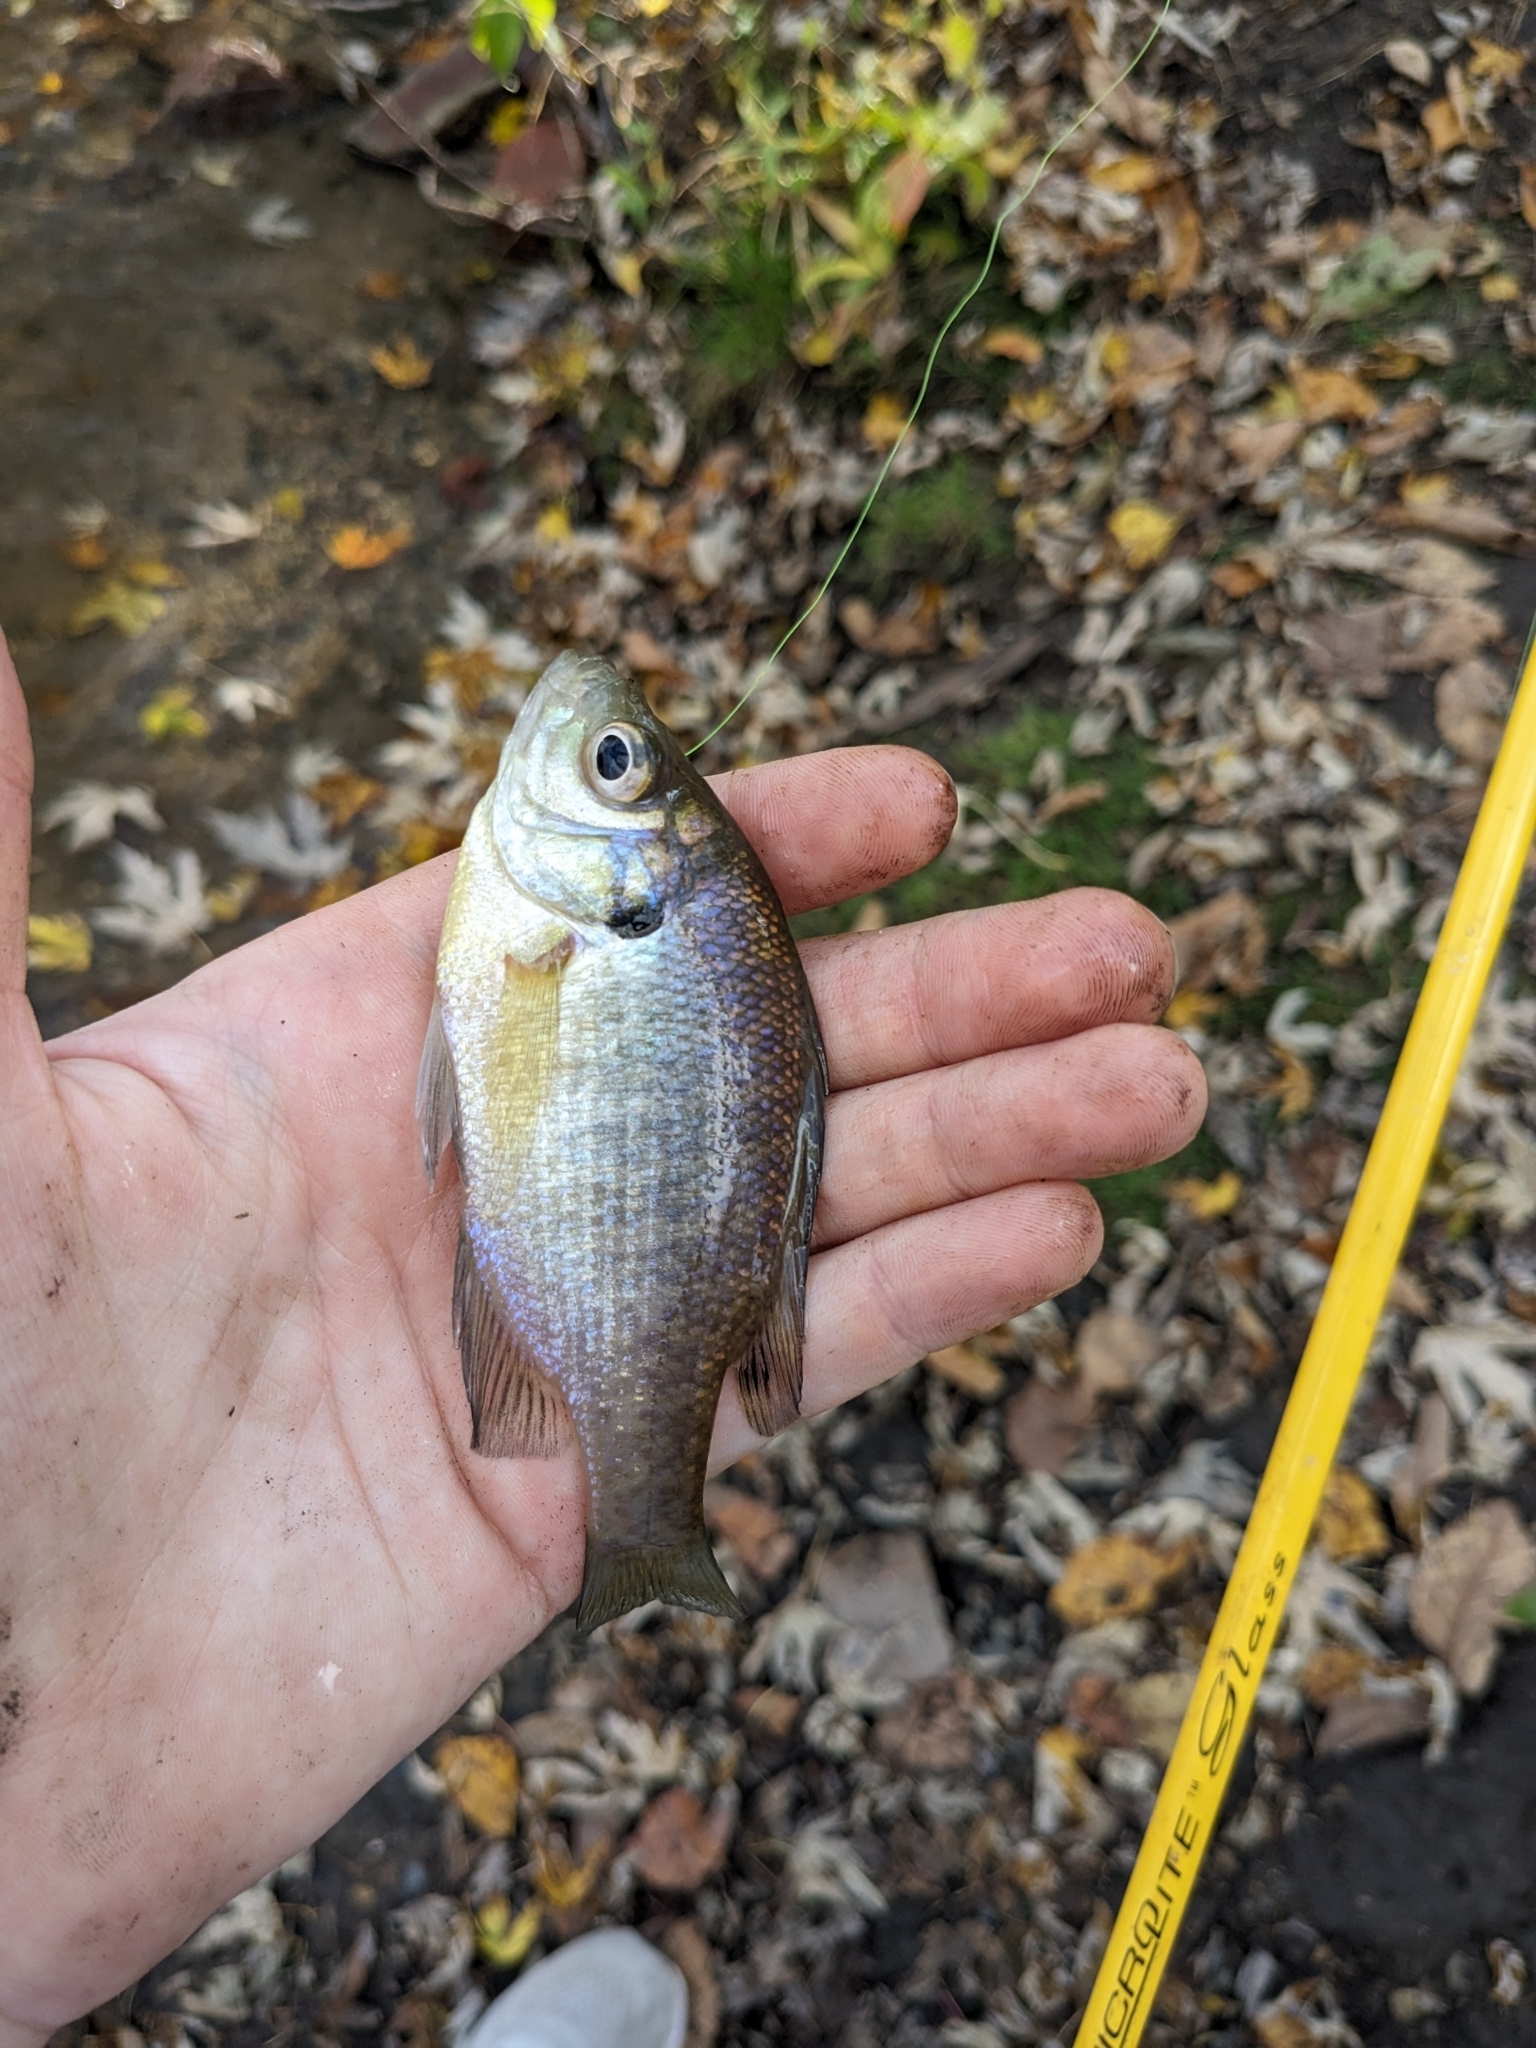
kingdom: Animalia
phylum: Chordata
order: Perciformes
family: Centrarchidae
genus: Lepomis
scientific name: Lepomis macrochirus
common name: Bluegill
